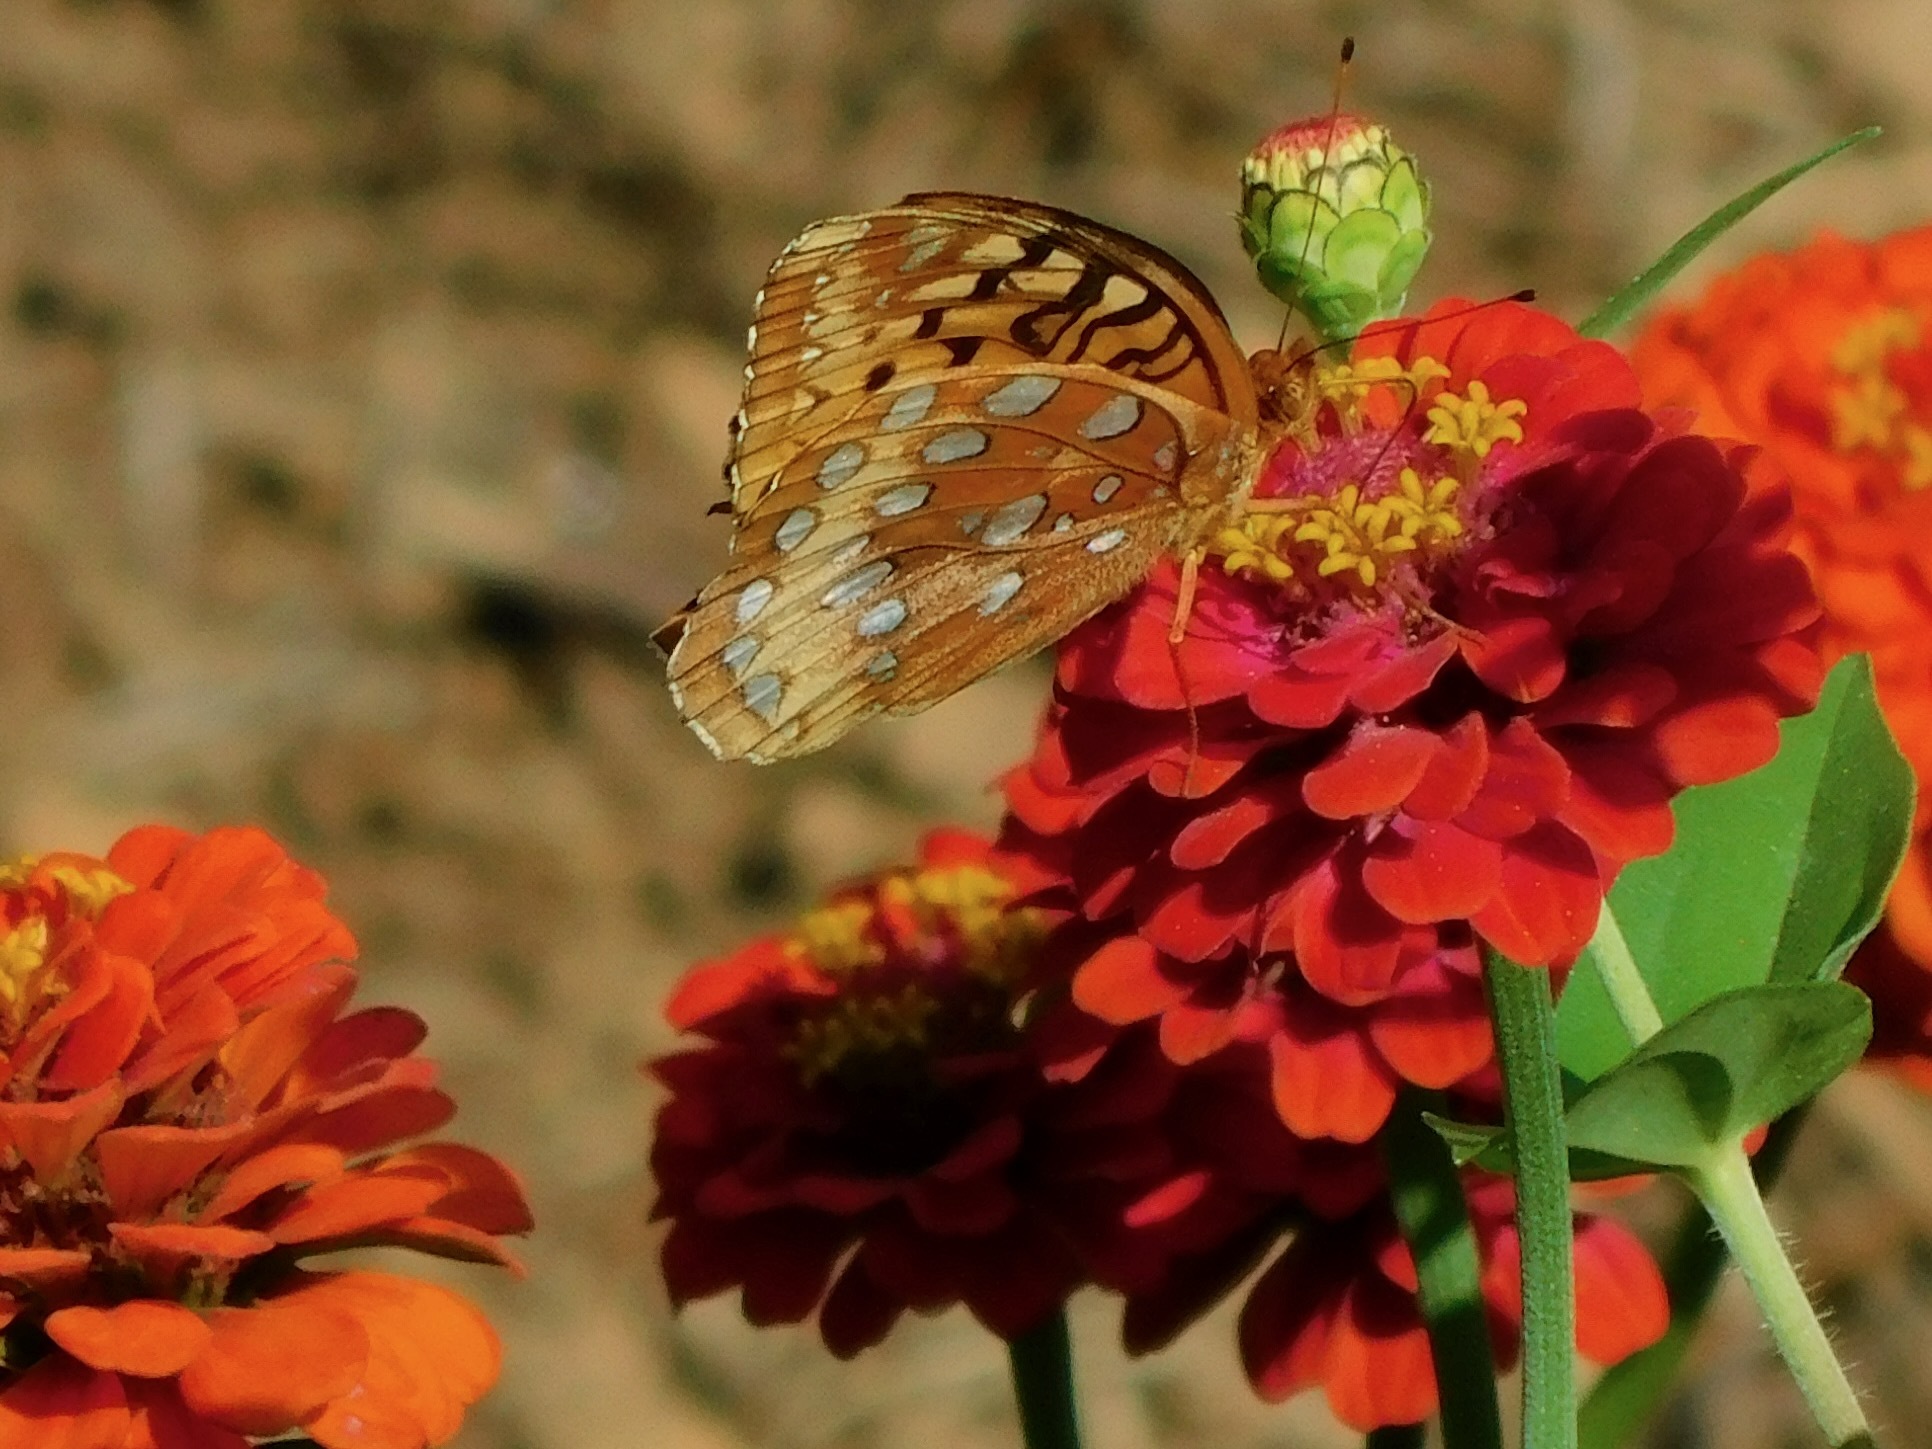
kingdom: Animalia
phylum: Arthropoda
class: Insecta
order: Lepidoptera
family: Nymphalidae
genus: Speyeria
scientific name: Speyeria cybele
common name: Great spangled fritillary
